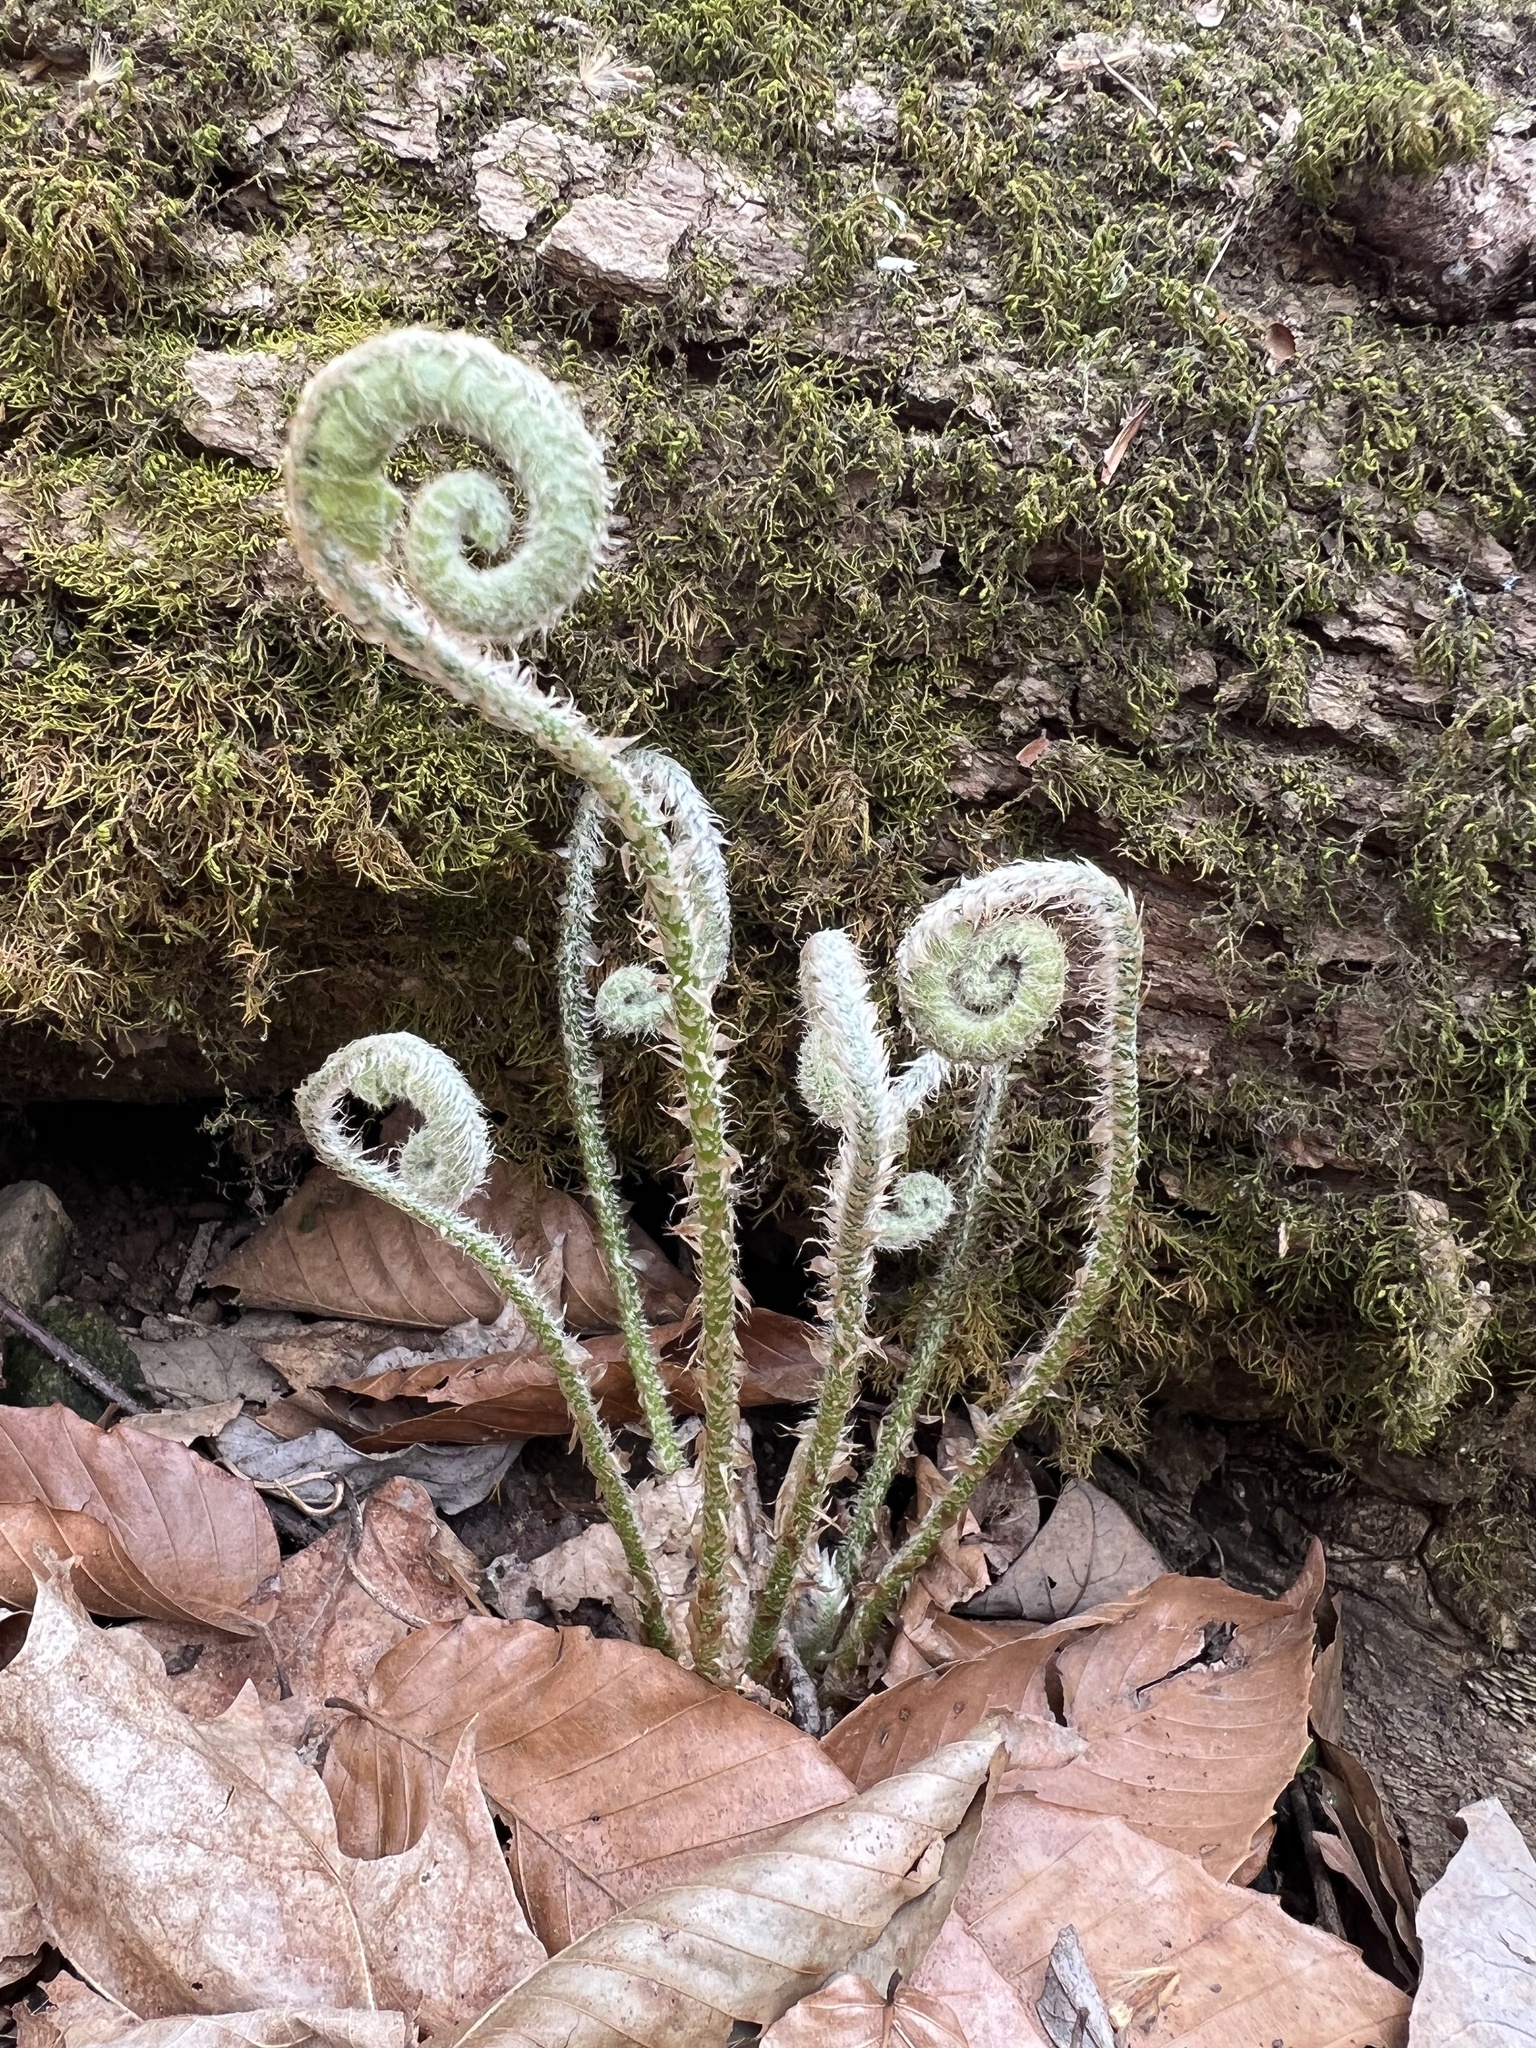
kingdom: Plantae
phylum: Tracheophyta
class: Polypodiopsida
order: Polypodiales
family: Dryopteridaceae
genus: Polystichum
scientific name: Polystichum acrostichoides
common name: Christmas fern
